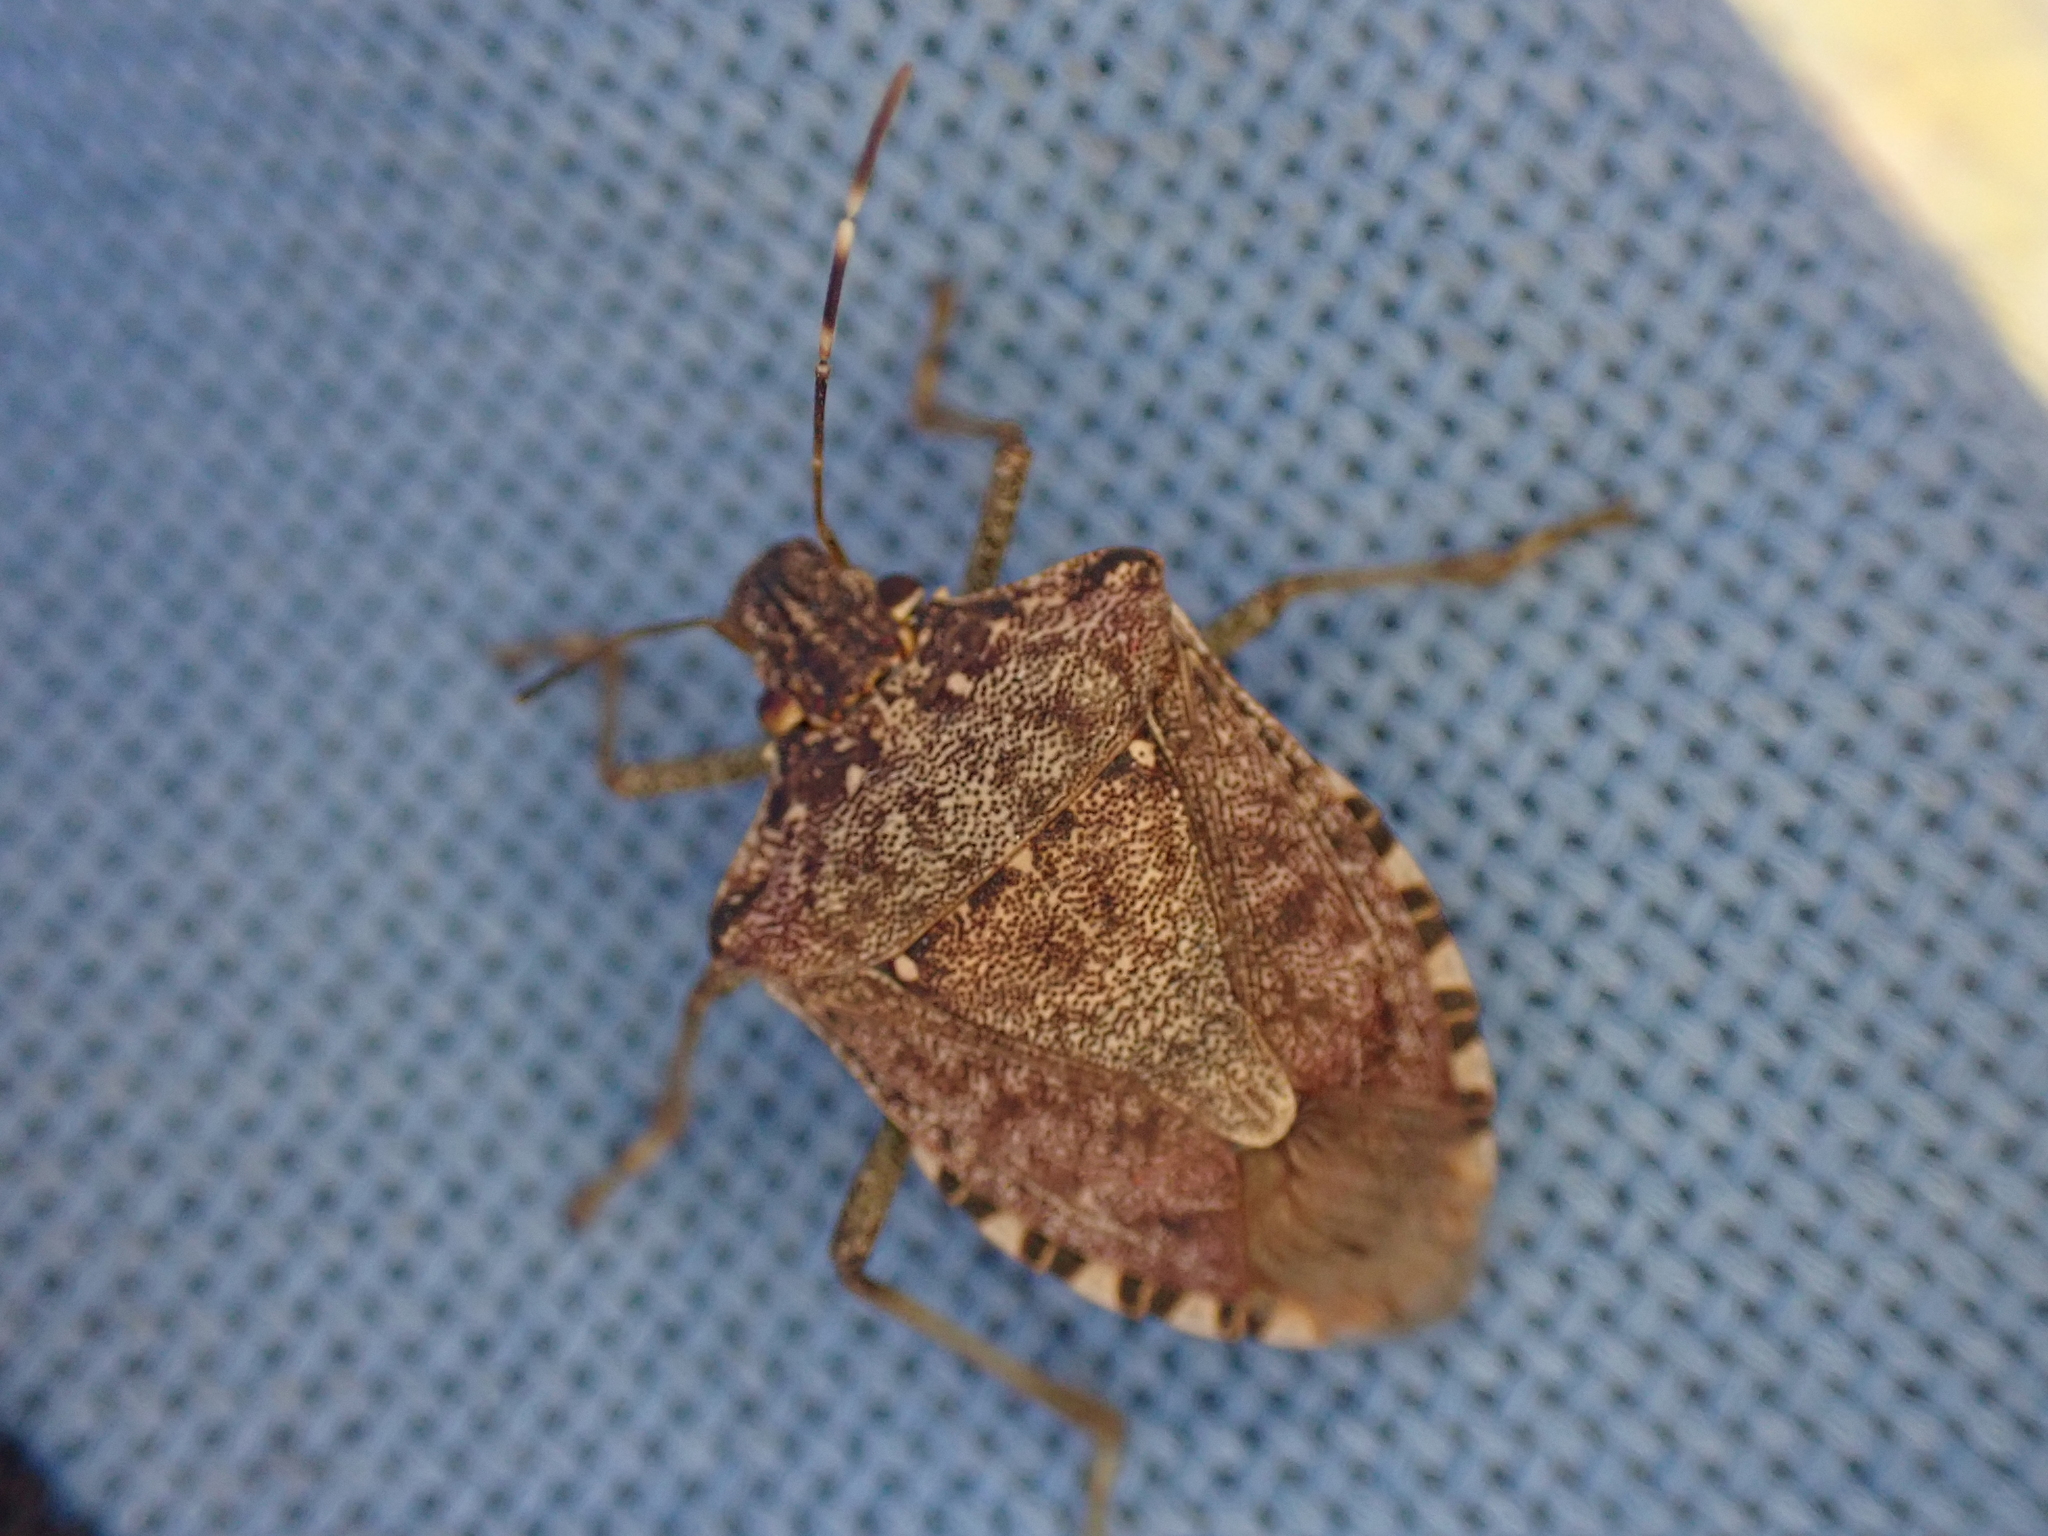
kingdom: Animalia
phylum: Arthropoda
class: Insecta
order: Hemiptera
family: Pentatomidae
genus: Halyomorpha
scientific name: Halyomorpha halys
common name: Brown marmorated stink bug
